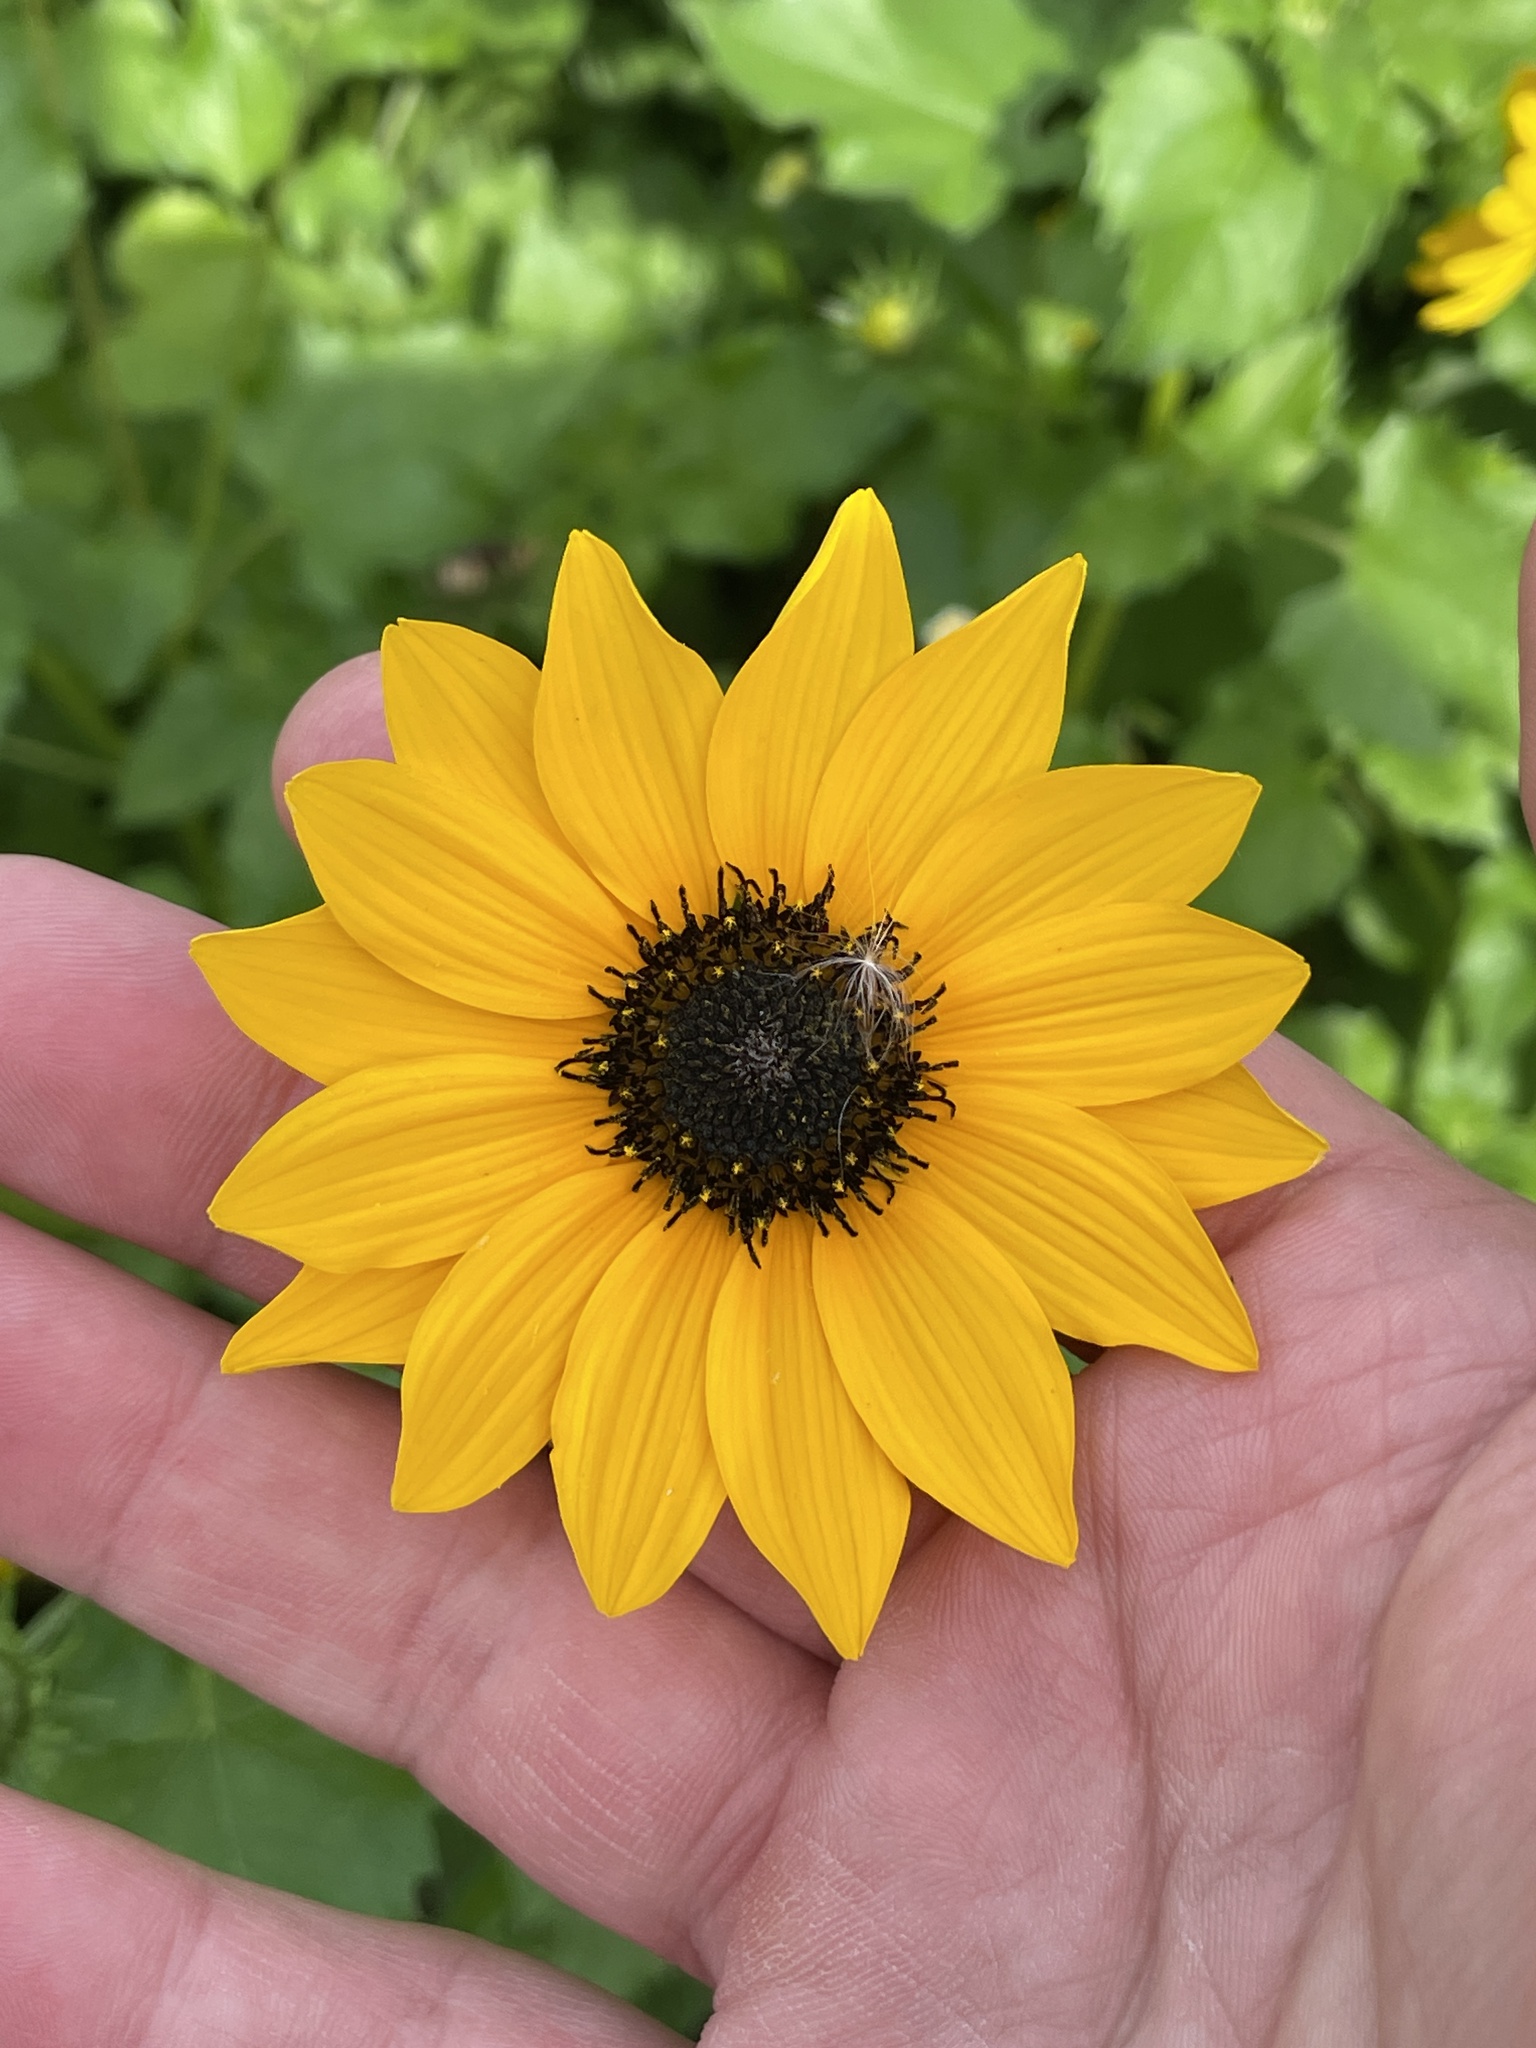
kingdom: Plantae
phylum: Tracheophyta
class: Magnoliopsida
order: Asterales
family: Asteraceae
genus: Helianthus
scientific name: Helianthus debilis
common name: Weak sunflower
